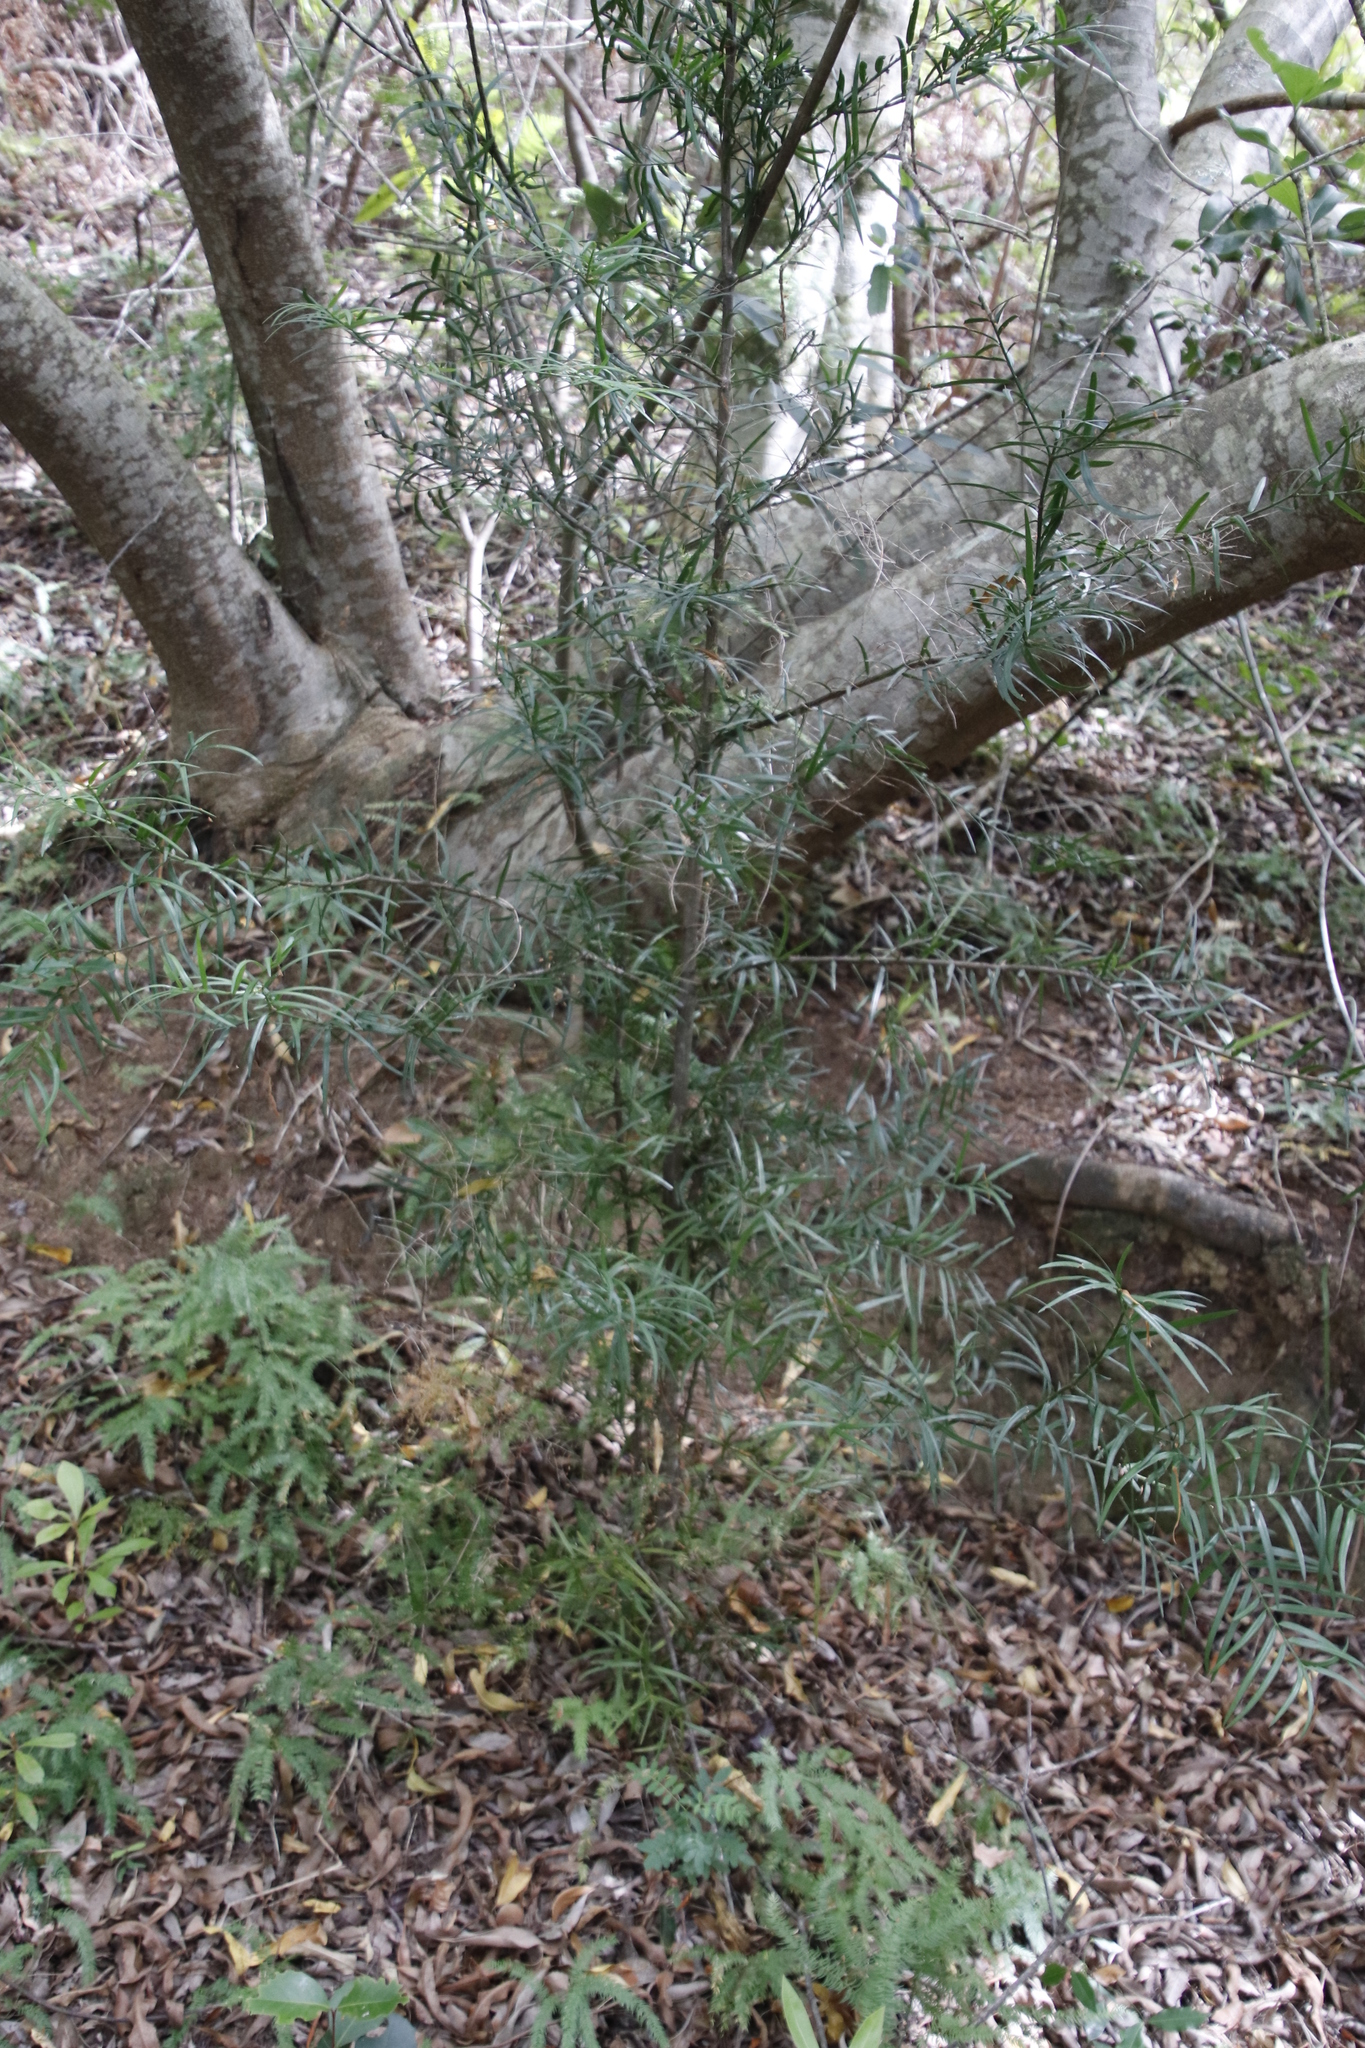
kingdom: Plantae
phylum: Tracheophyta
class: Pinopsida
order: Pinales
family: Podocarpaceae
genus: Afrocarpus
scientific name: Afrocarpus falcatus
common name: Bastard yellowwood
